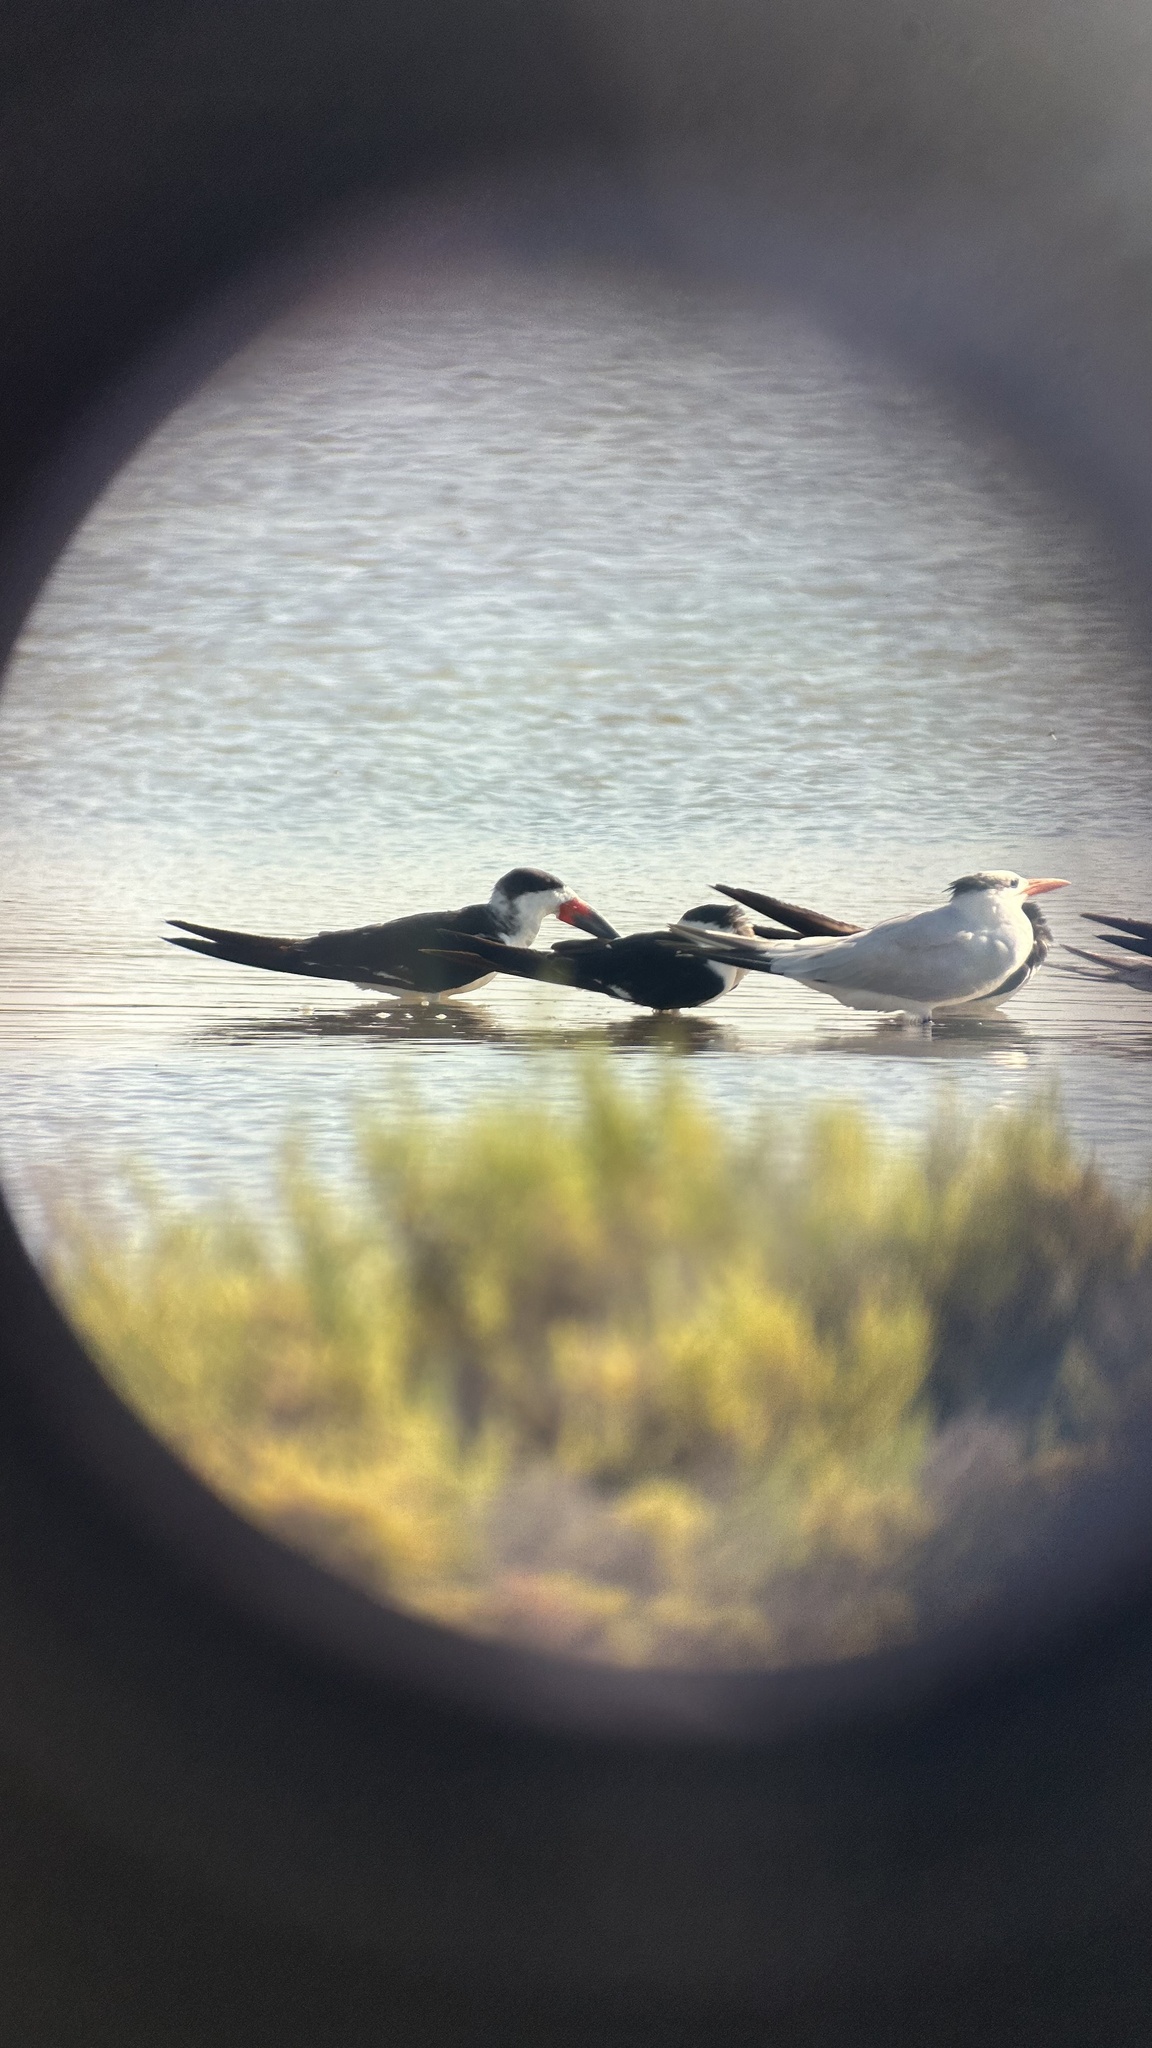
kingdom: Animalia
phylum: Chordata
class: Aves
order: Charadriiformes
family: Laridae
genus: Rynchops
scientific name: Rynchops niger
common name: Black skimmer
